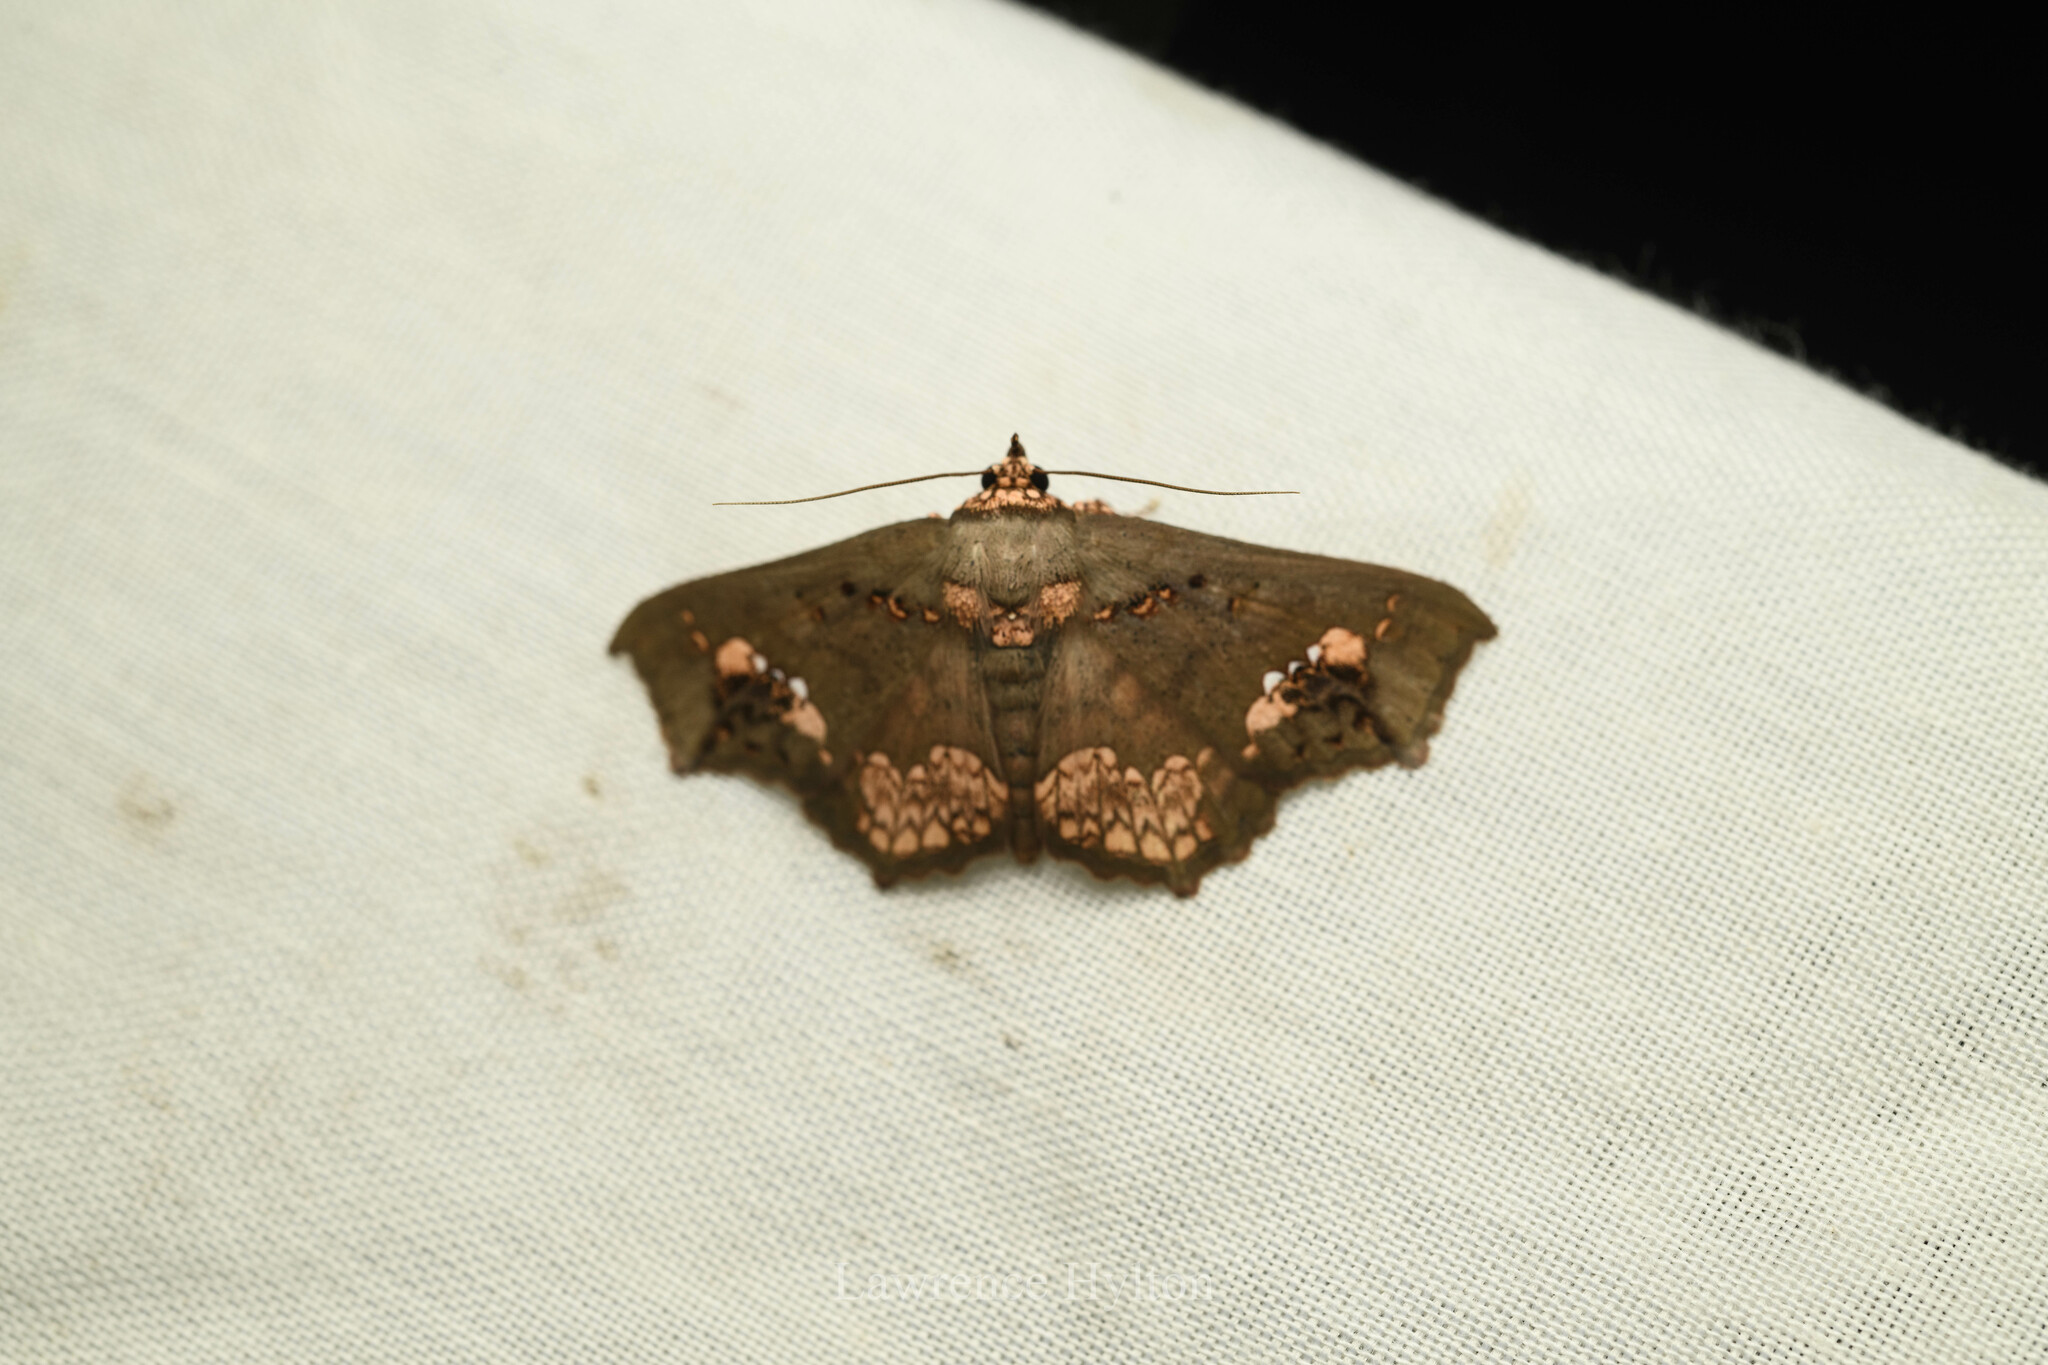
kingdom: Animalia
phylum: Arthropoda
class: Insecta
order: Lepidoptera
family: Erebidae
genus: Lopharthrum
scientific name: Lopharthrum comprimens
